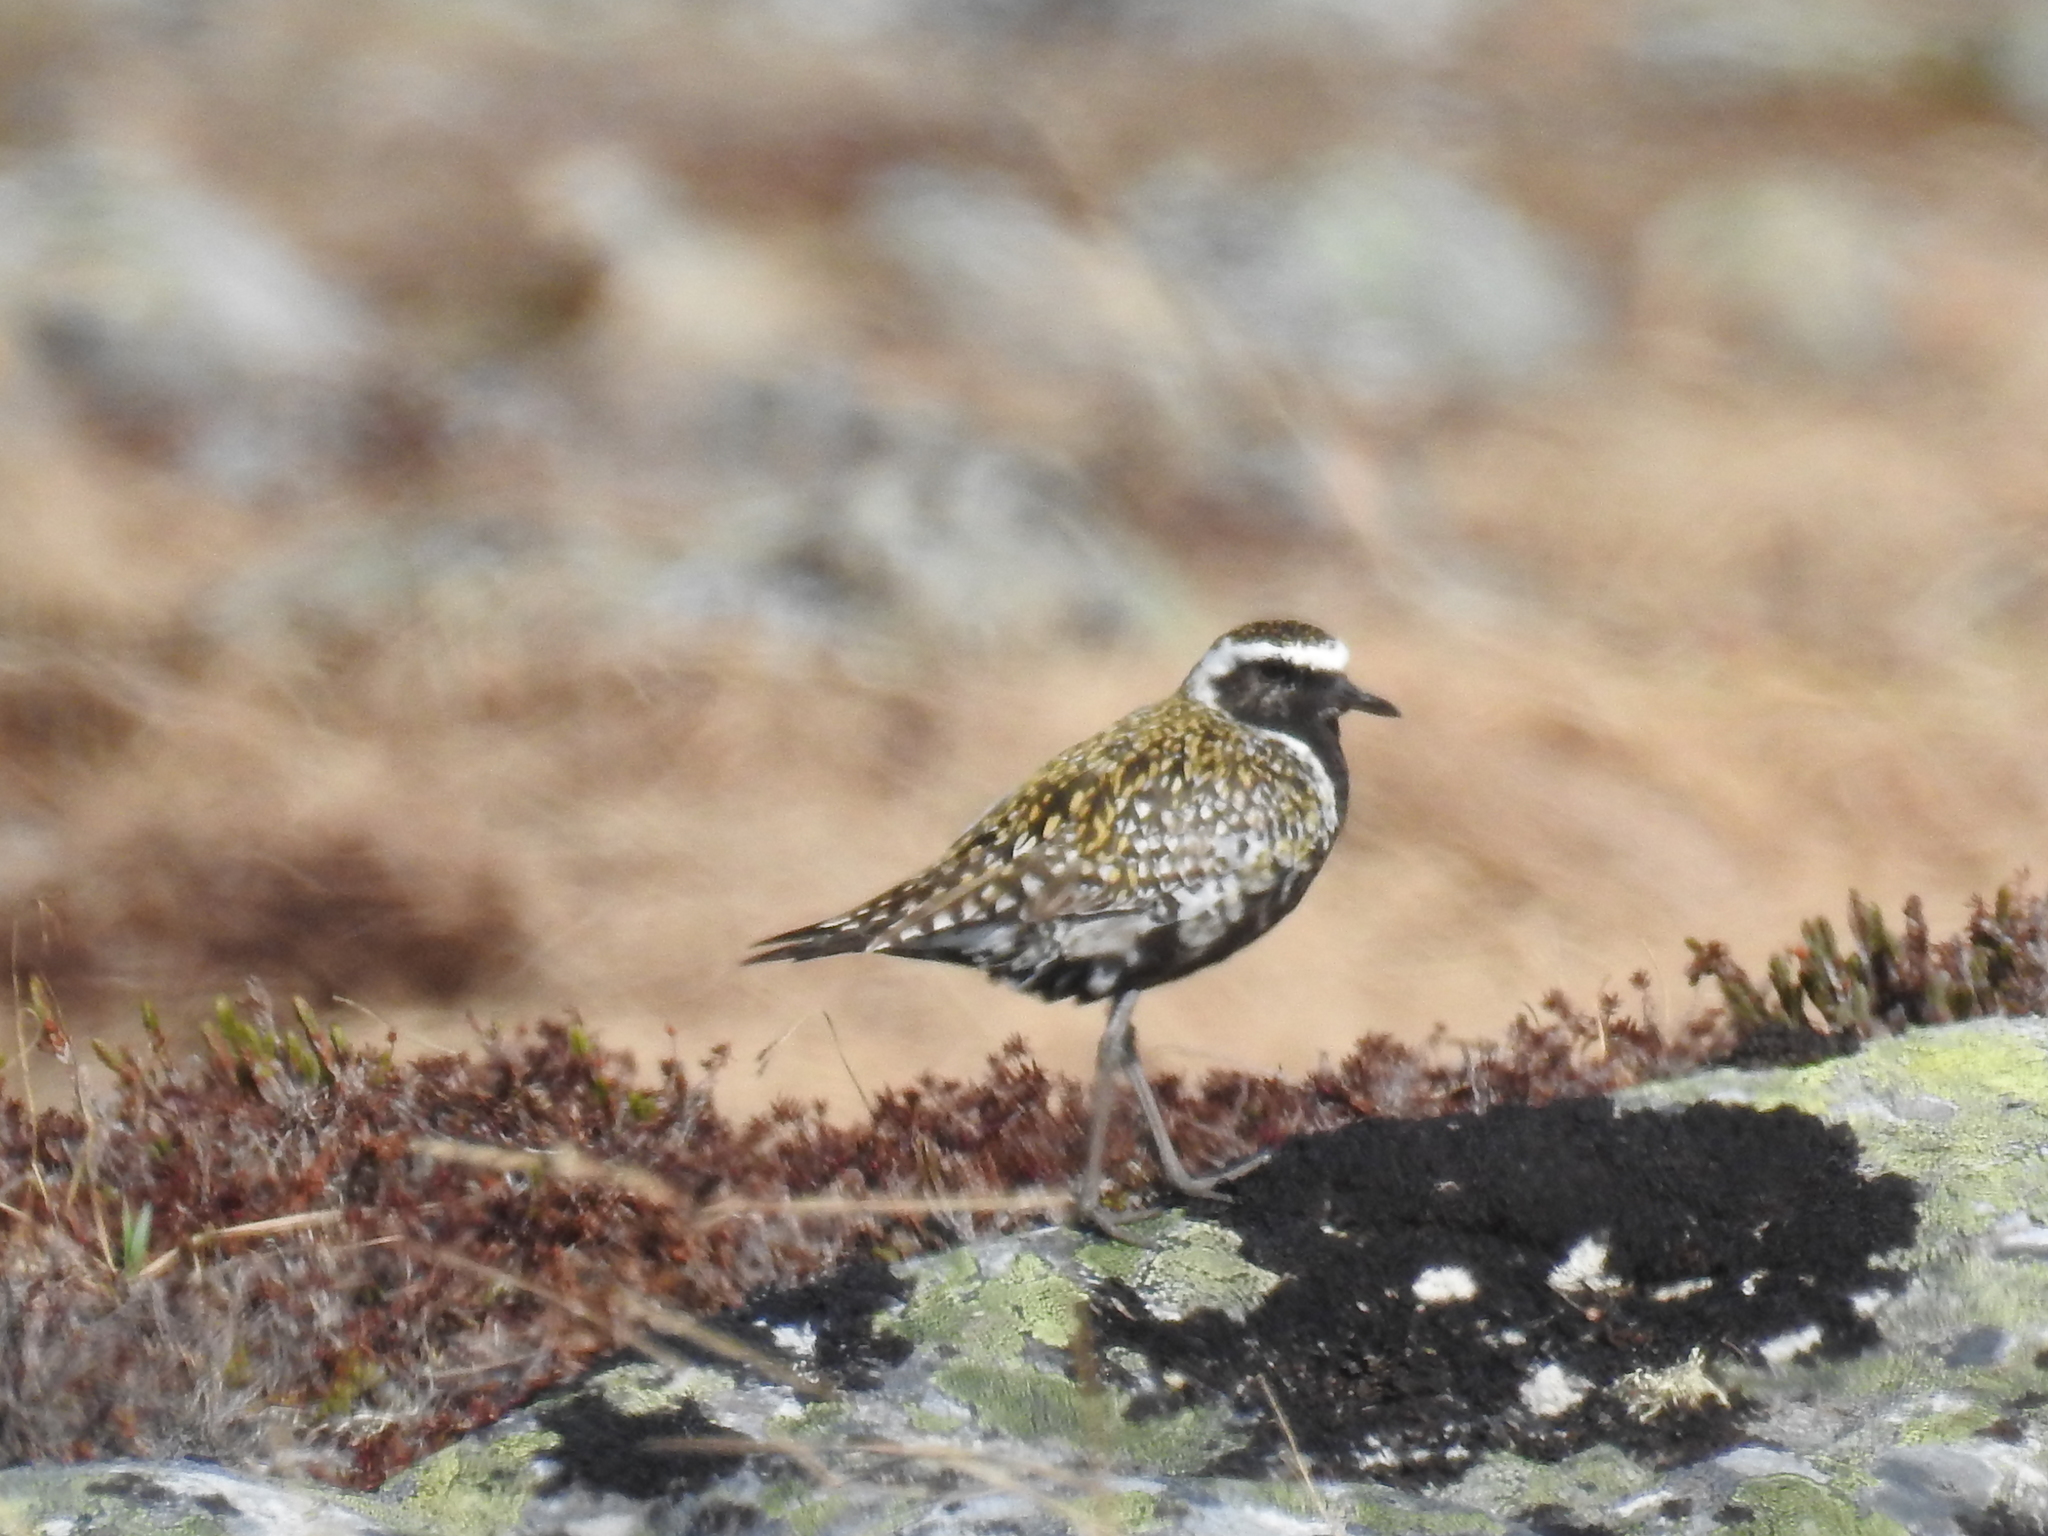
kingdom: Animalia
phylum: Chordata
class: Aves
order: Charadriiformes
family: Charadriidae
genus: Pluvialis
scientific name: Pluvialis fulva
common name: Pacific golden plover
